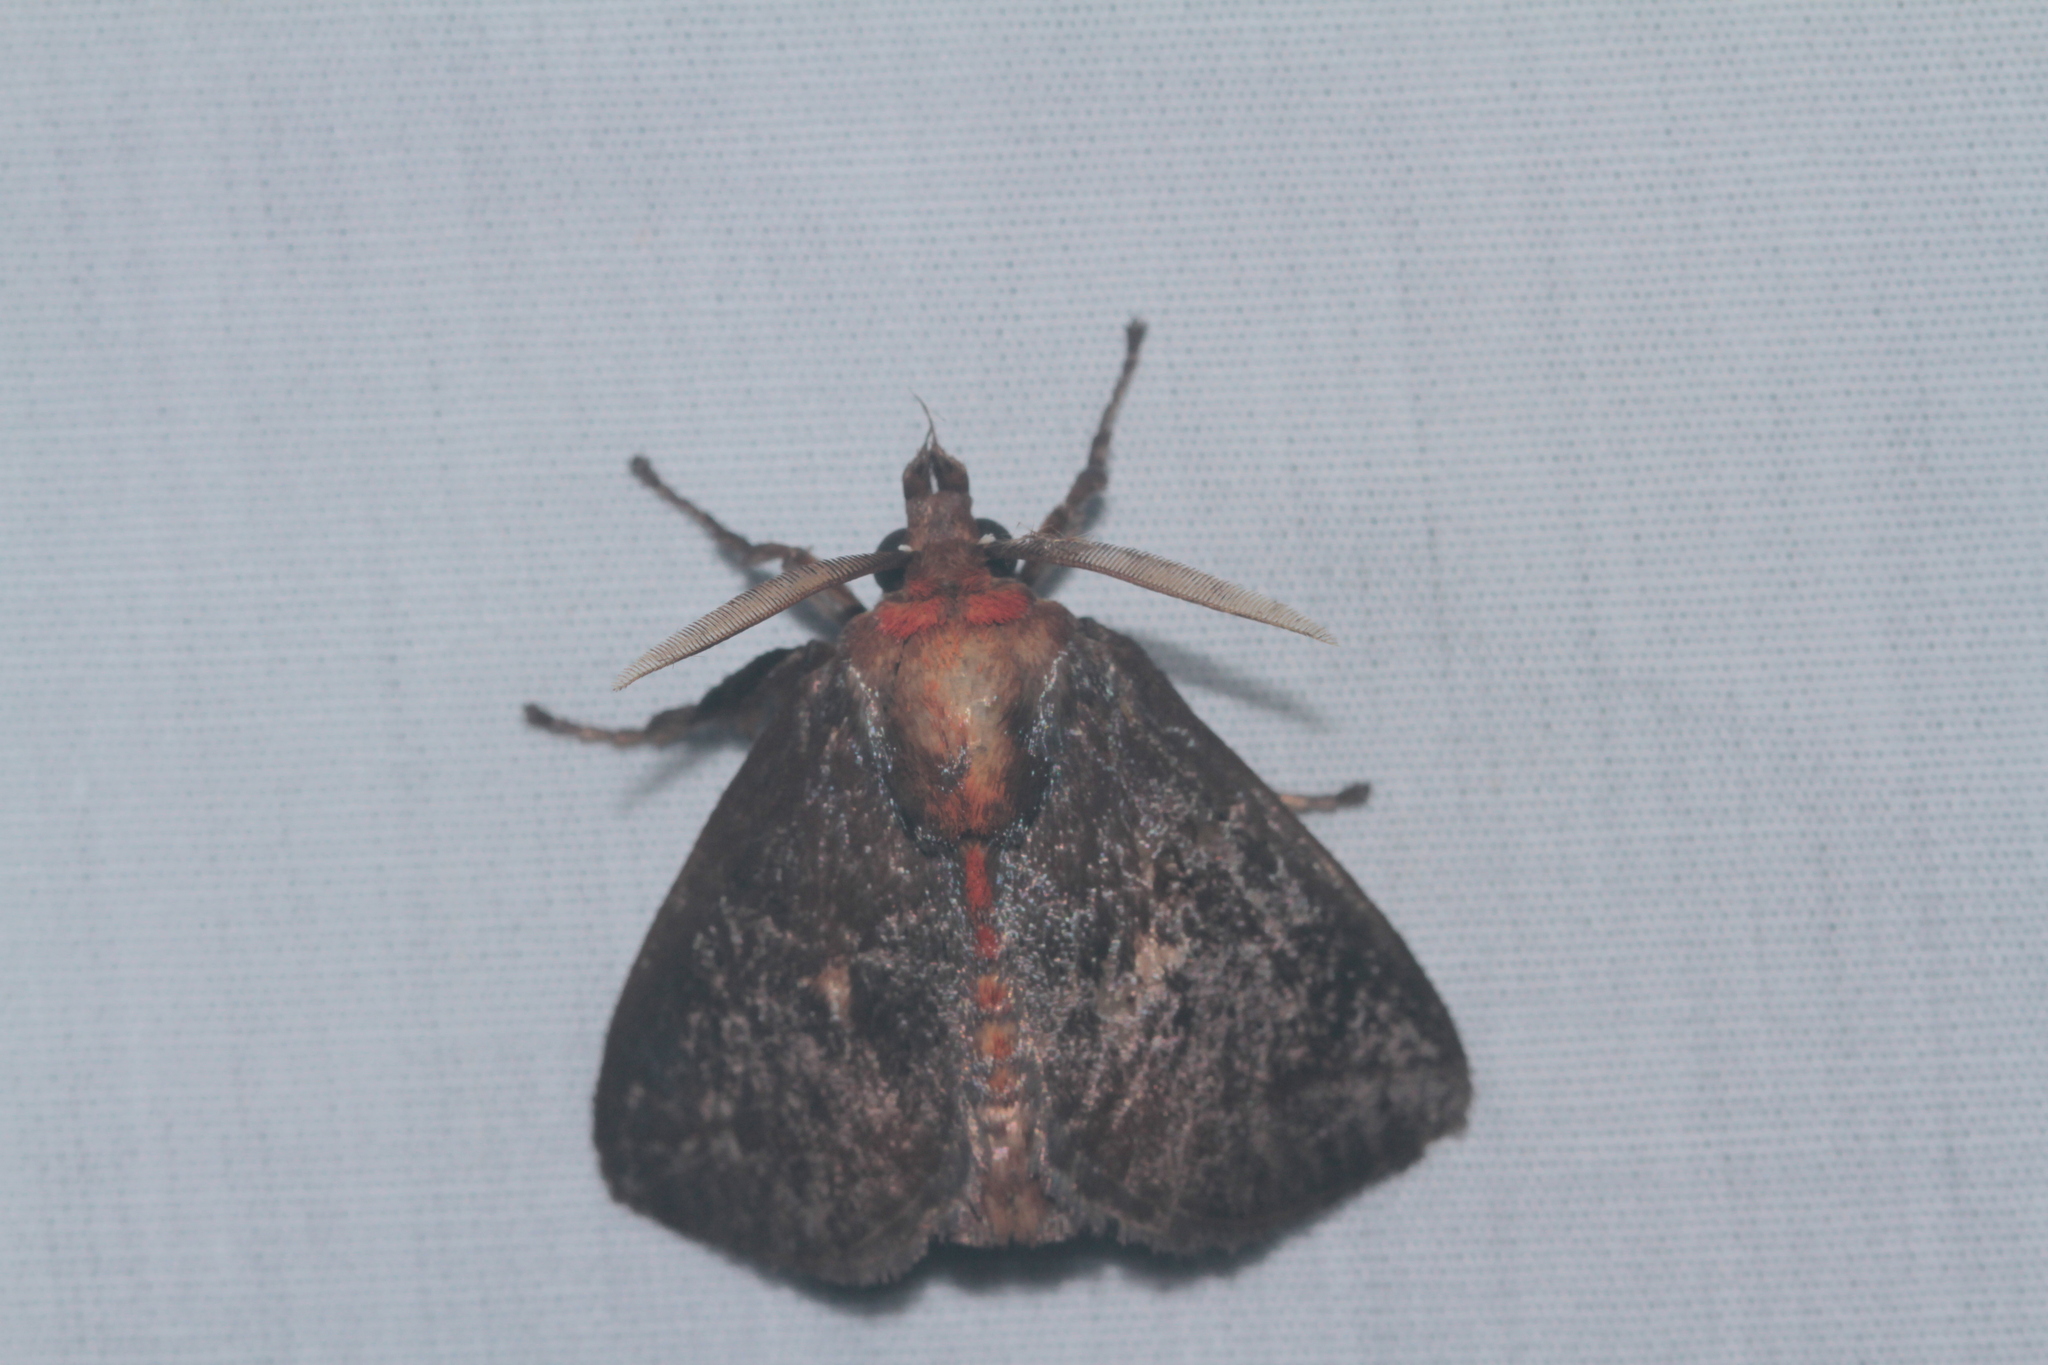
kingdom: Animalia
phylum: Arthropoda
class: Insecta
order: Lepidoptera
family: Limacodidae
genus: Natada
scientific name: Natada pucara
